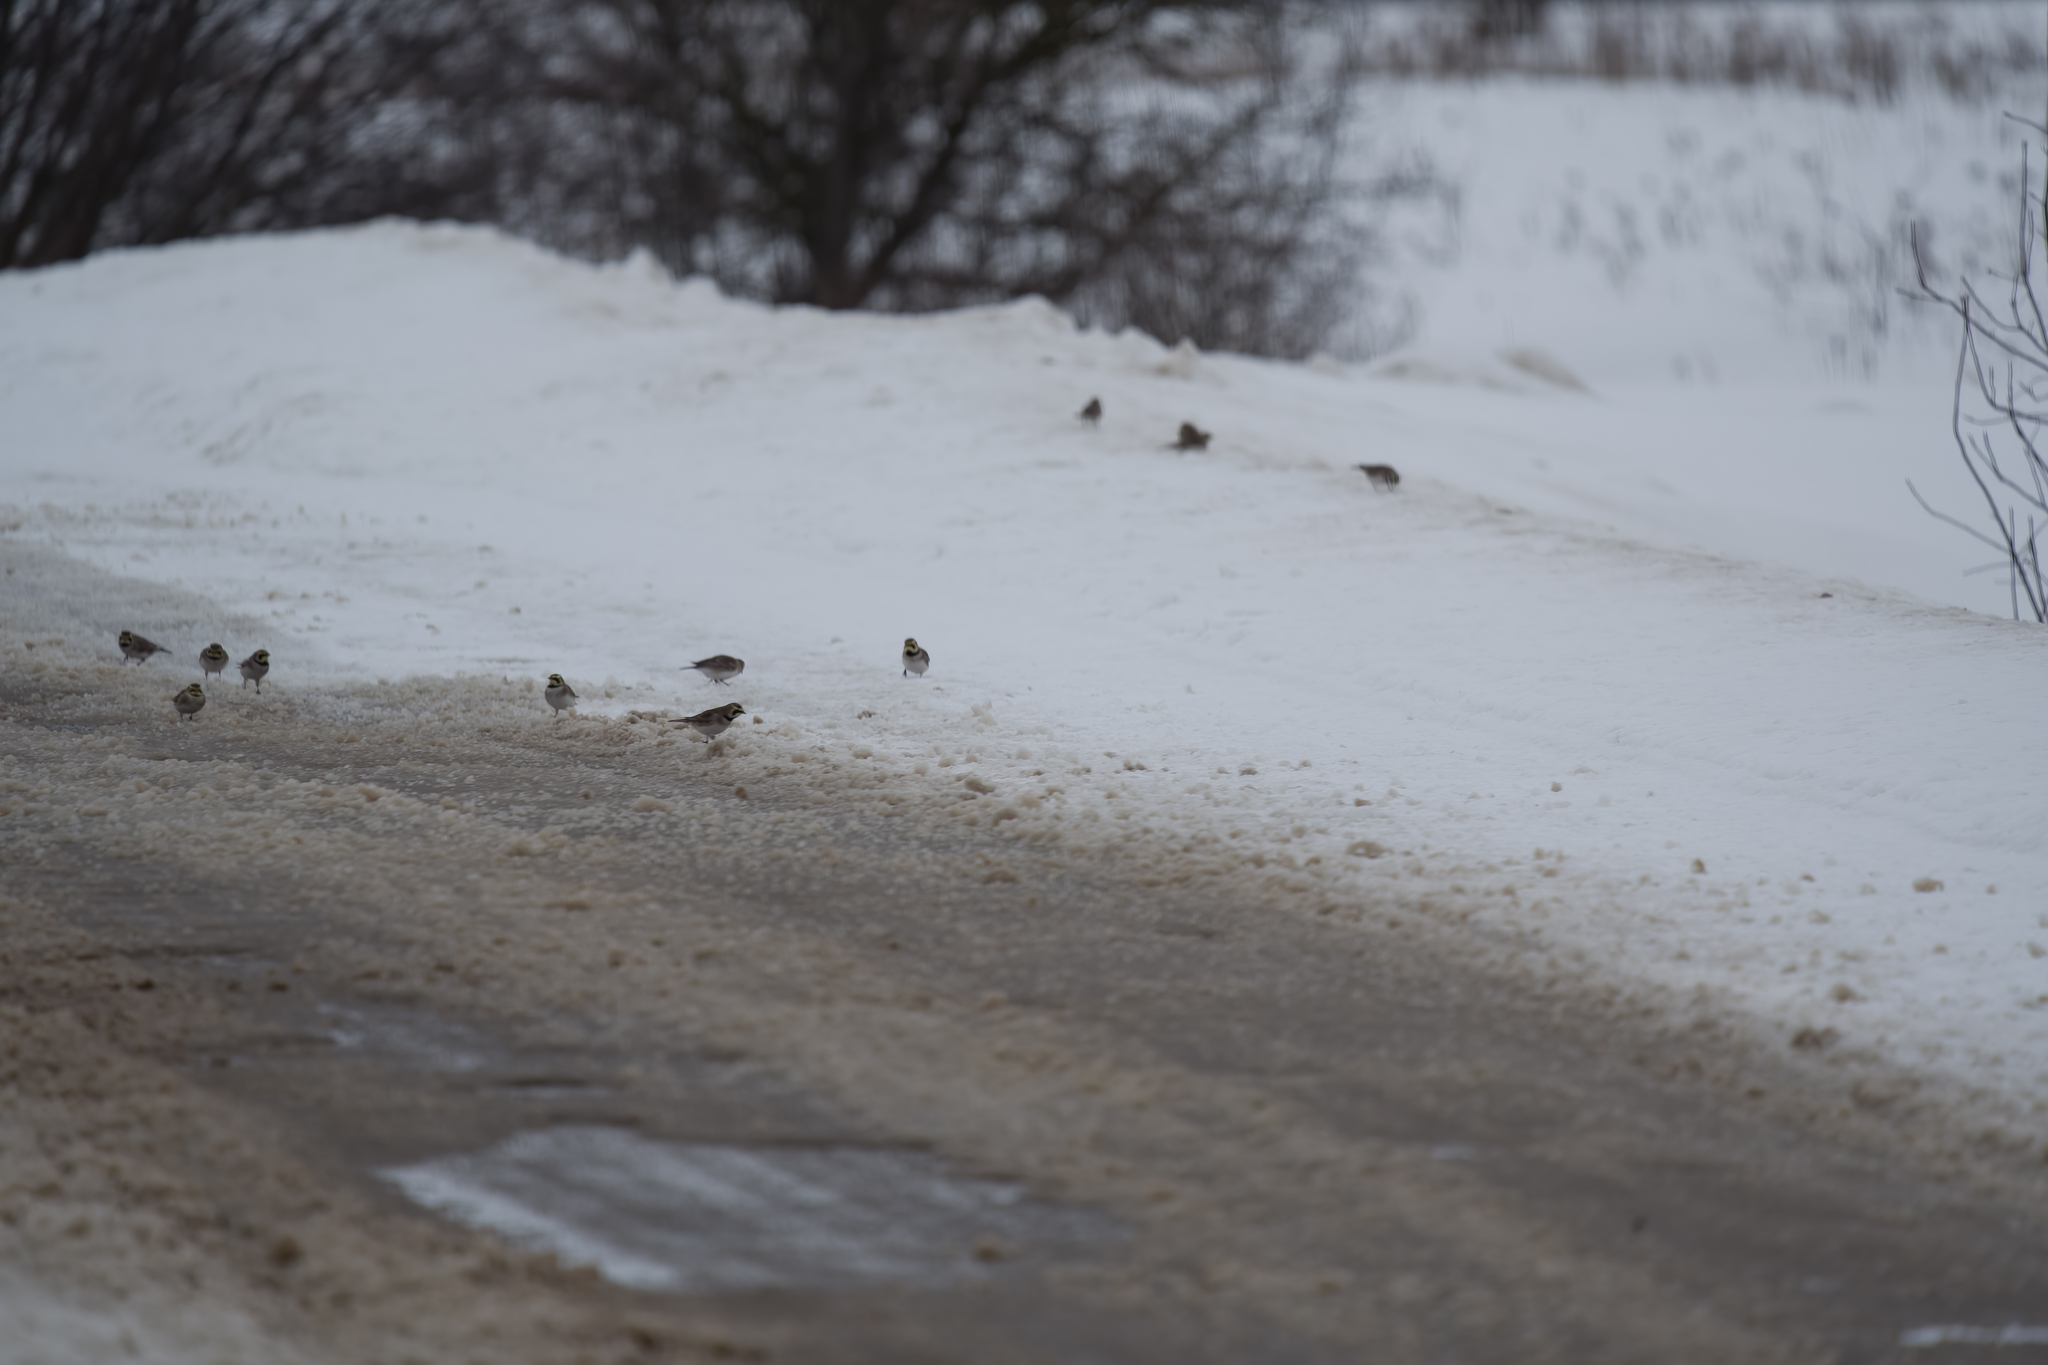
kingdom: Animalia
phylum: Chordata
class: Aves
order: Passeriformes
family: Alaudidae
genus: Eremophila
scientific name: Eremophila alpestris
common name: Horned lark
